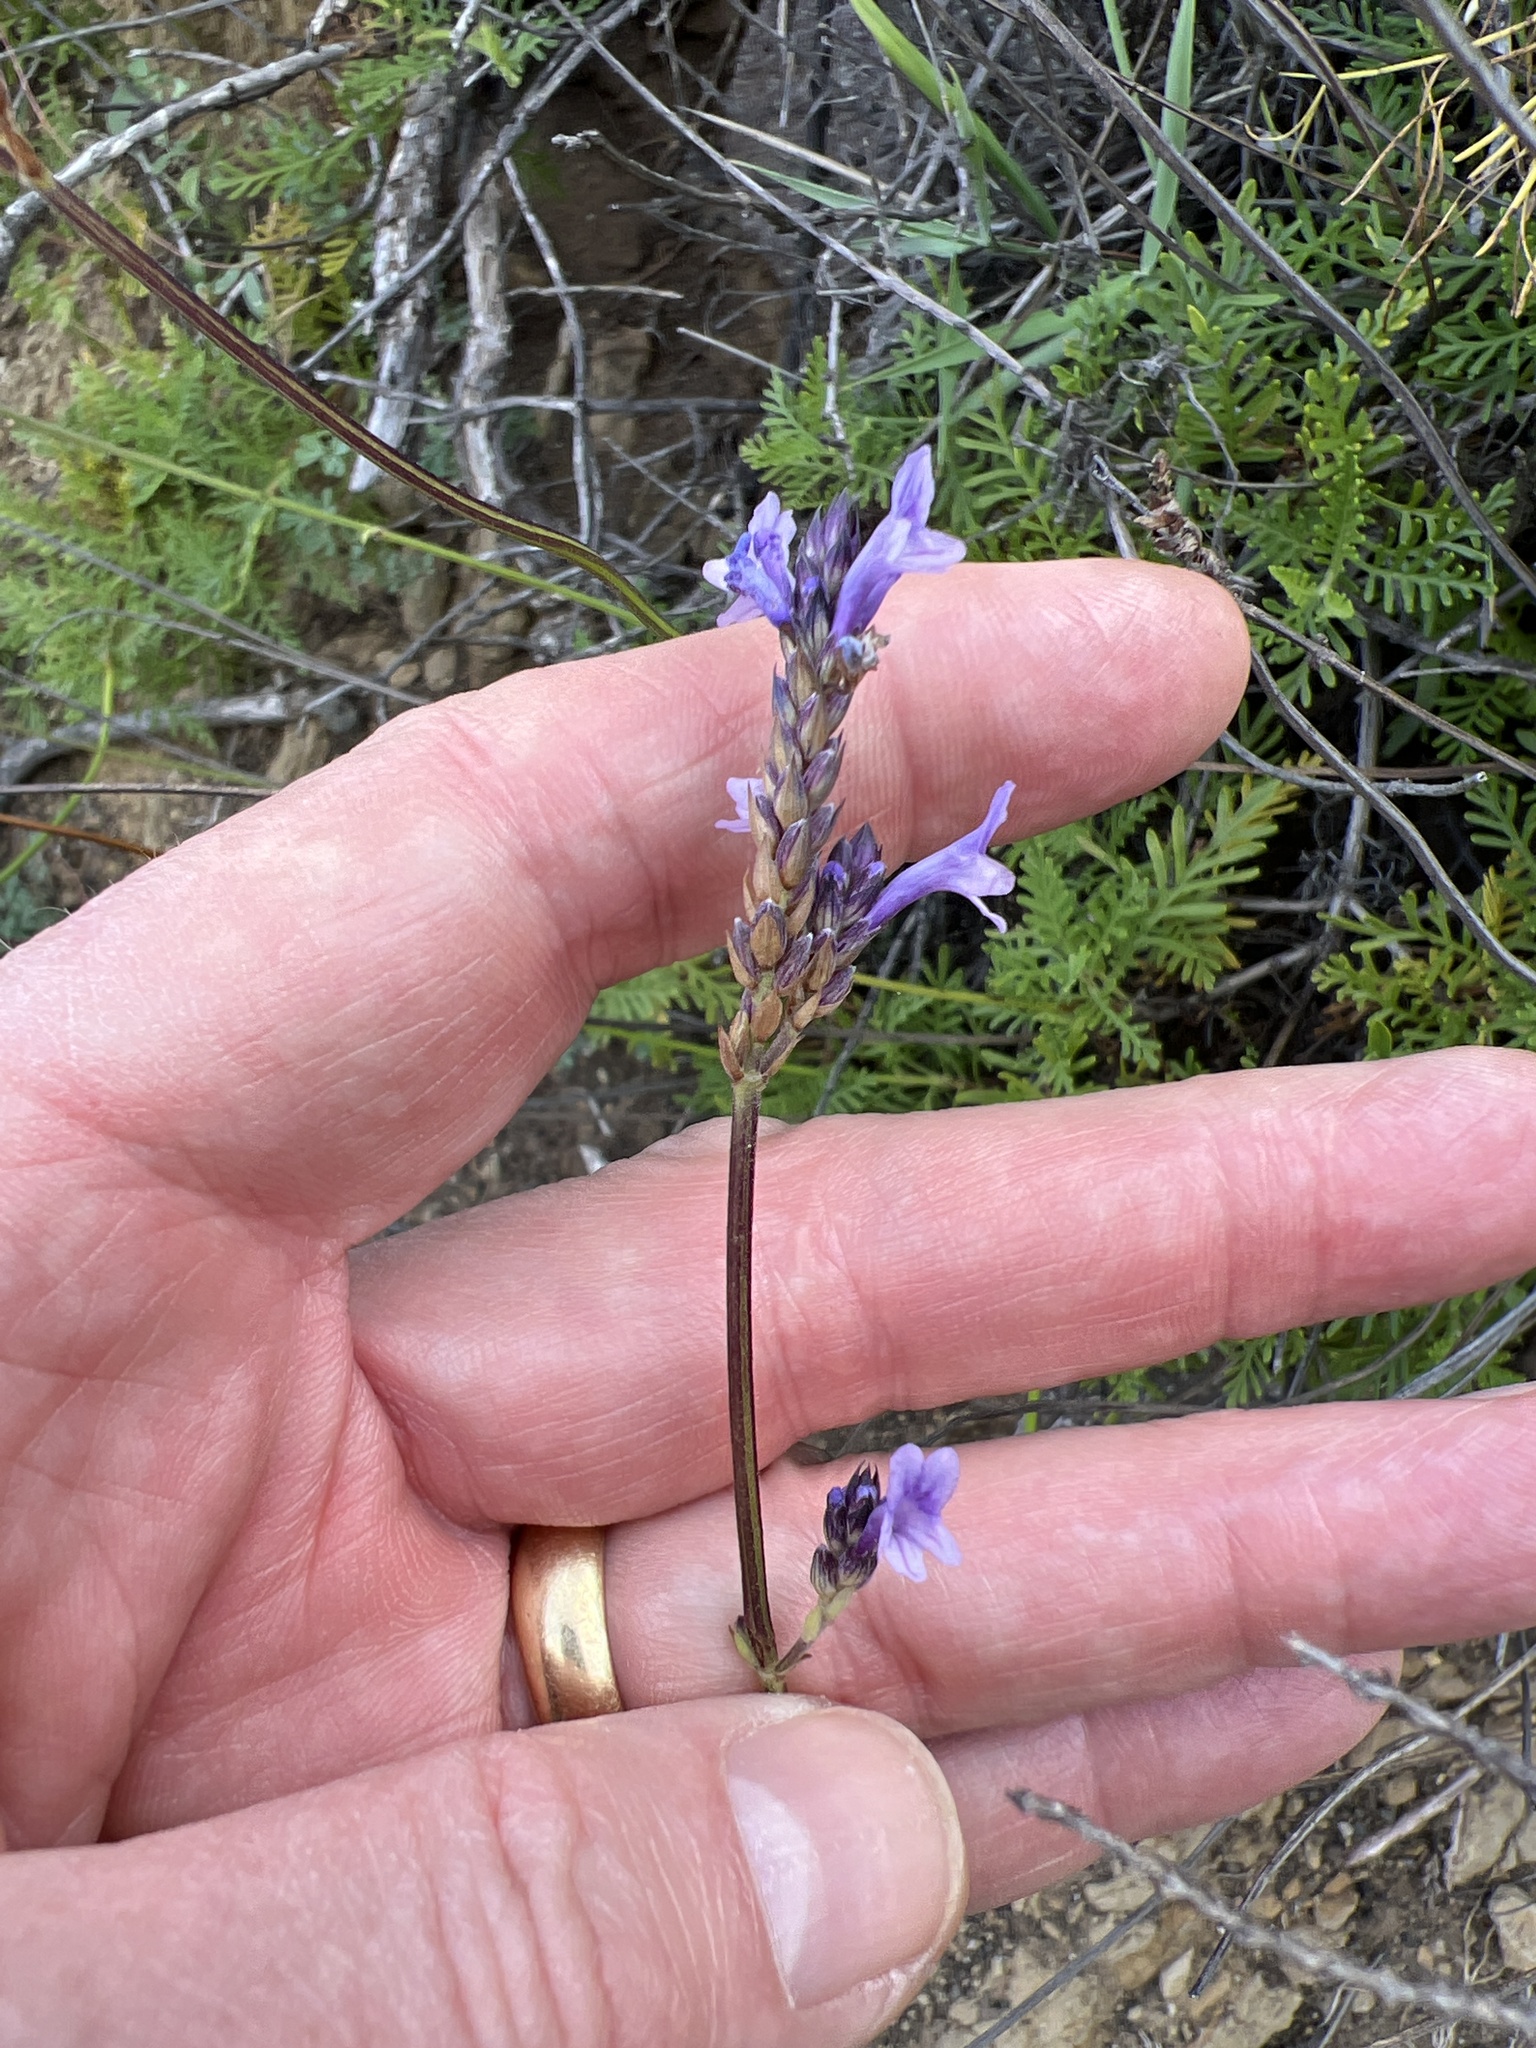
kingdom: Plantae
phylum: Tracheophyta
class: Magnoliopsida
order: Lamiales
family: Lamiaceae
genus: Lavandula
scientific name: Lavandula canariensis
